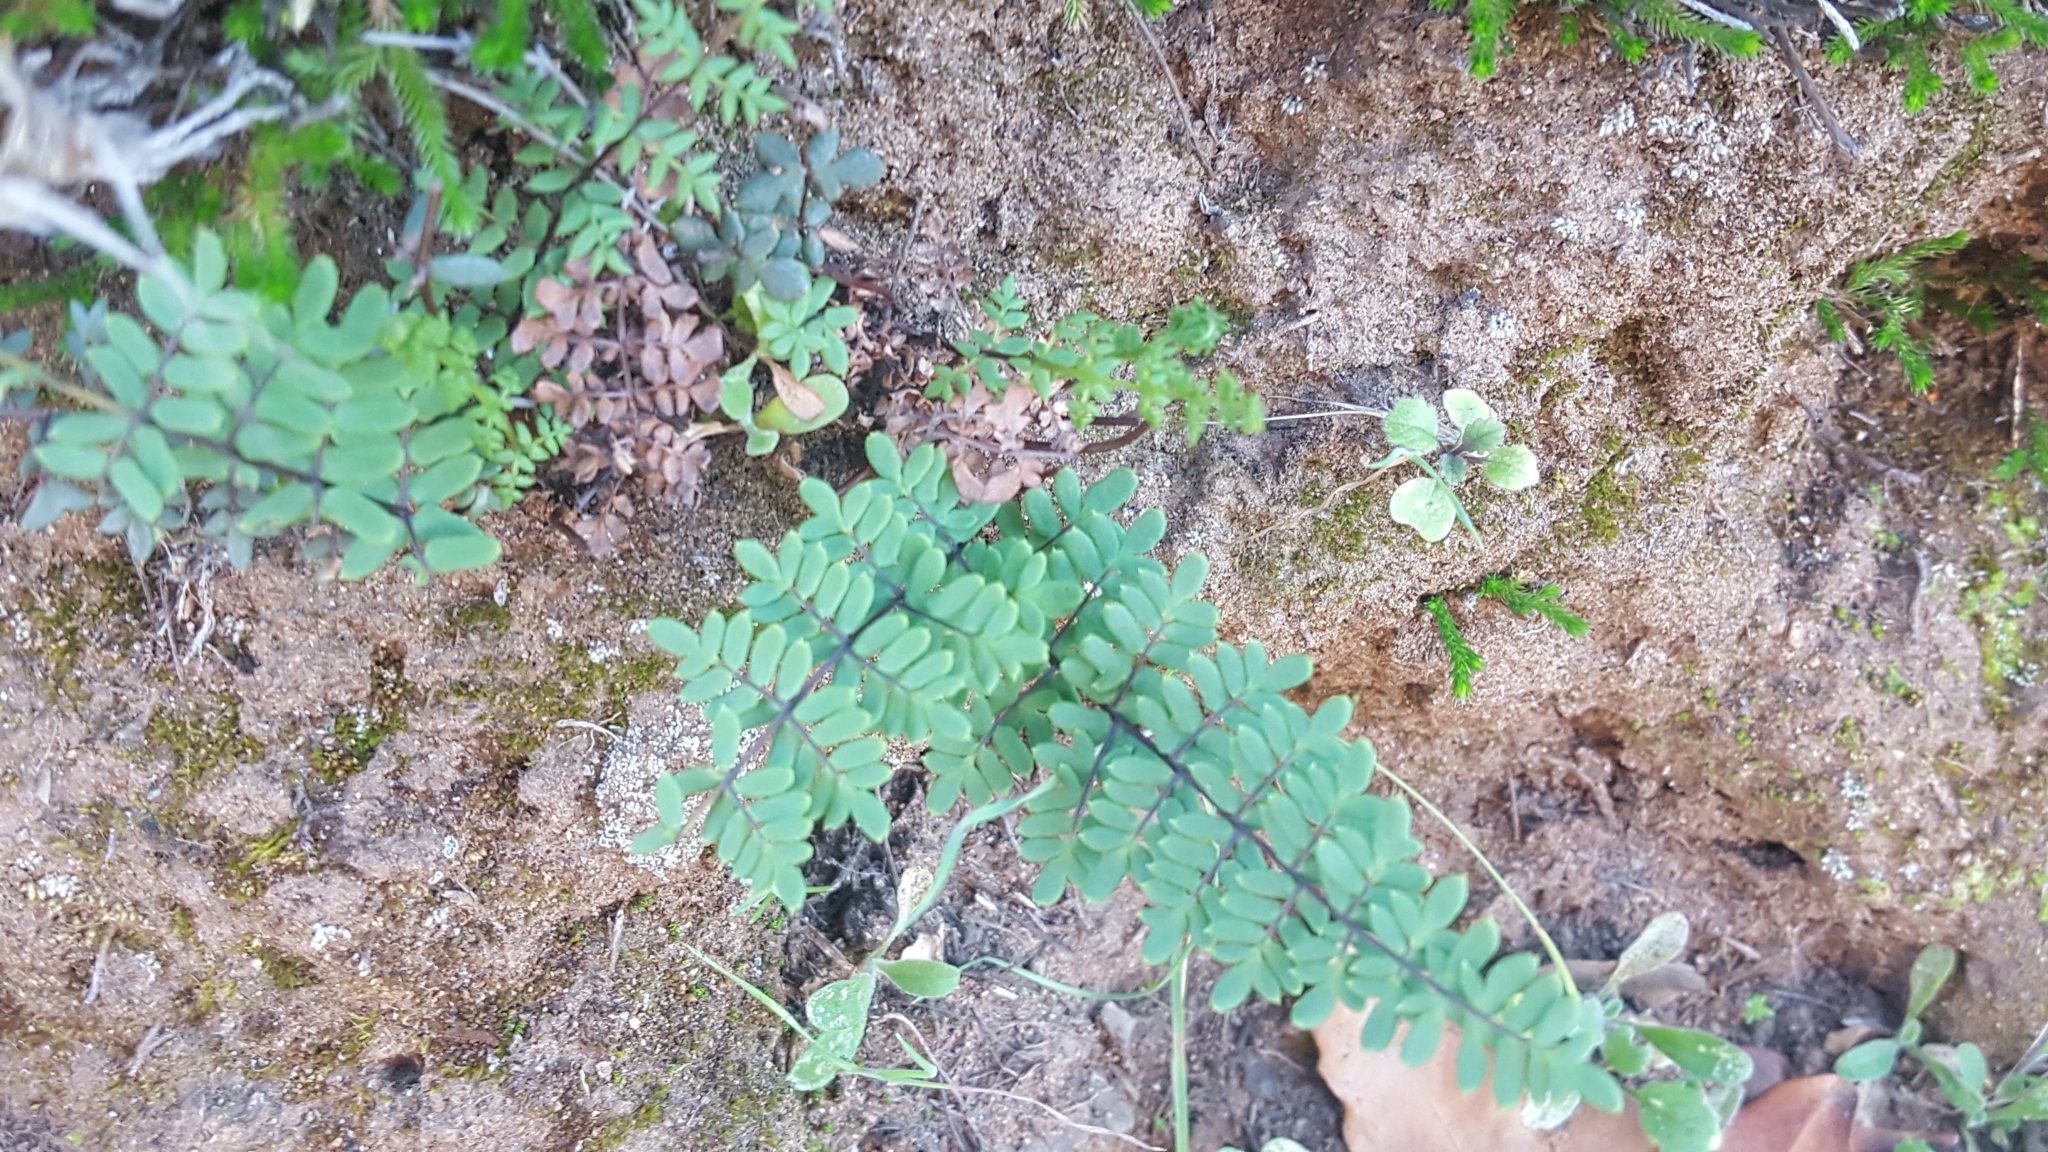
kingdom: Plantae
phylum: Tracheophyta
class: Polypodiopsida
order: Polypodiales
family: Pteridaceae
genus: Pellaea
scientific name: Pellaea mucronata
